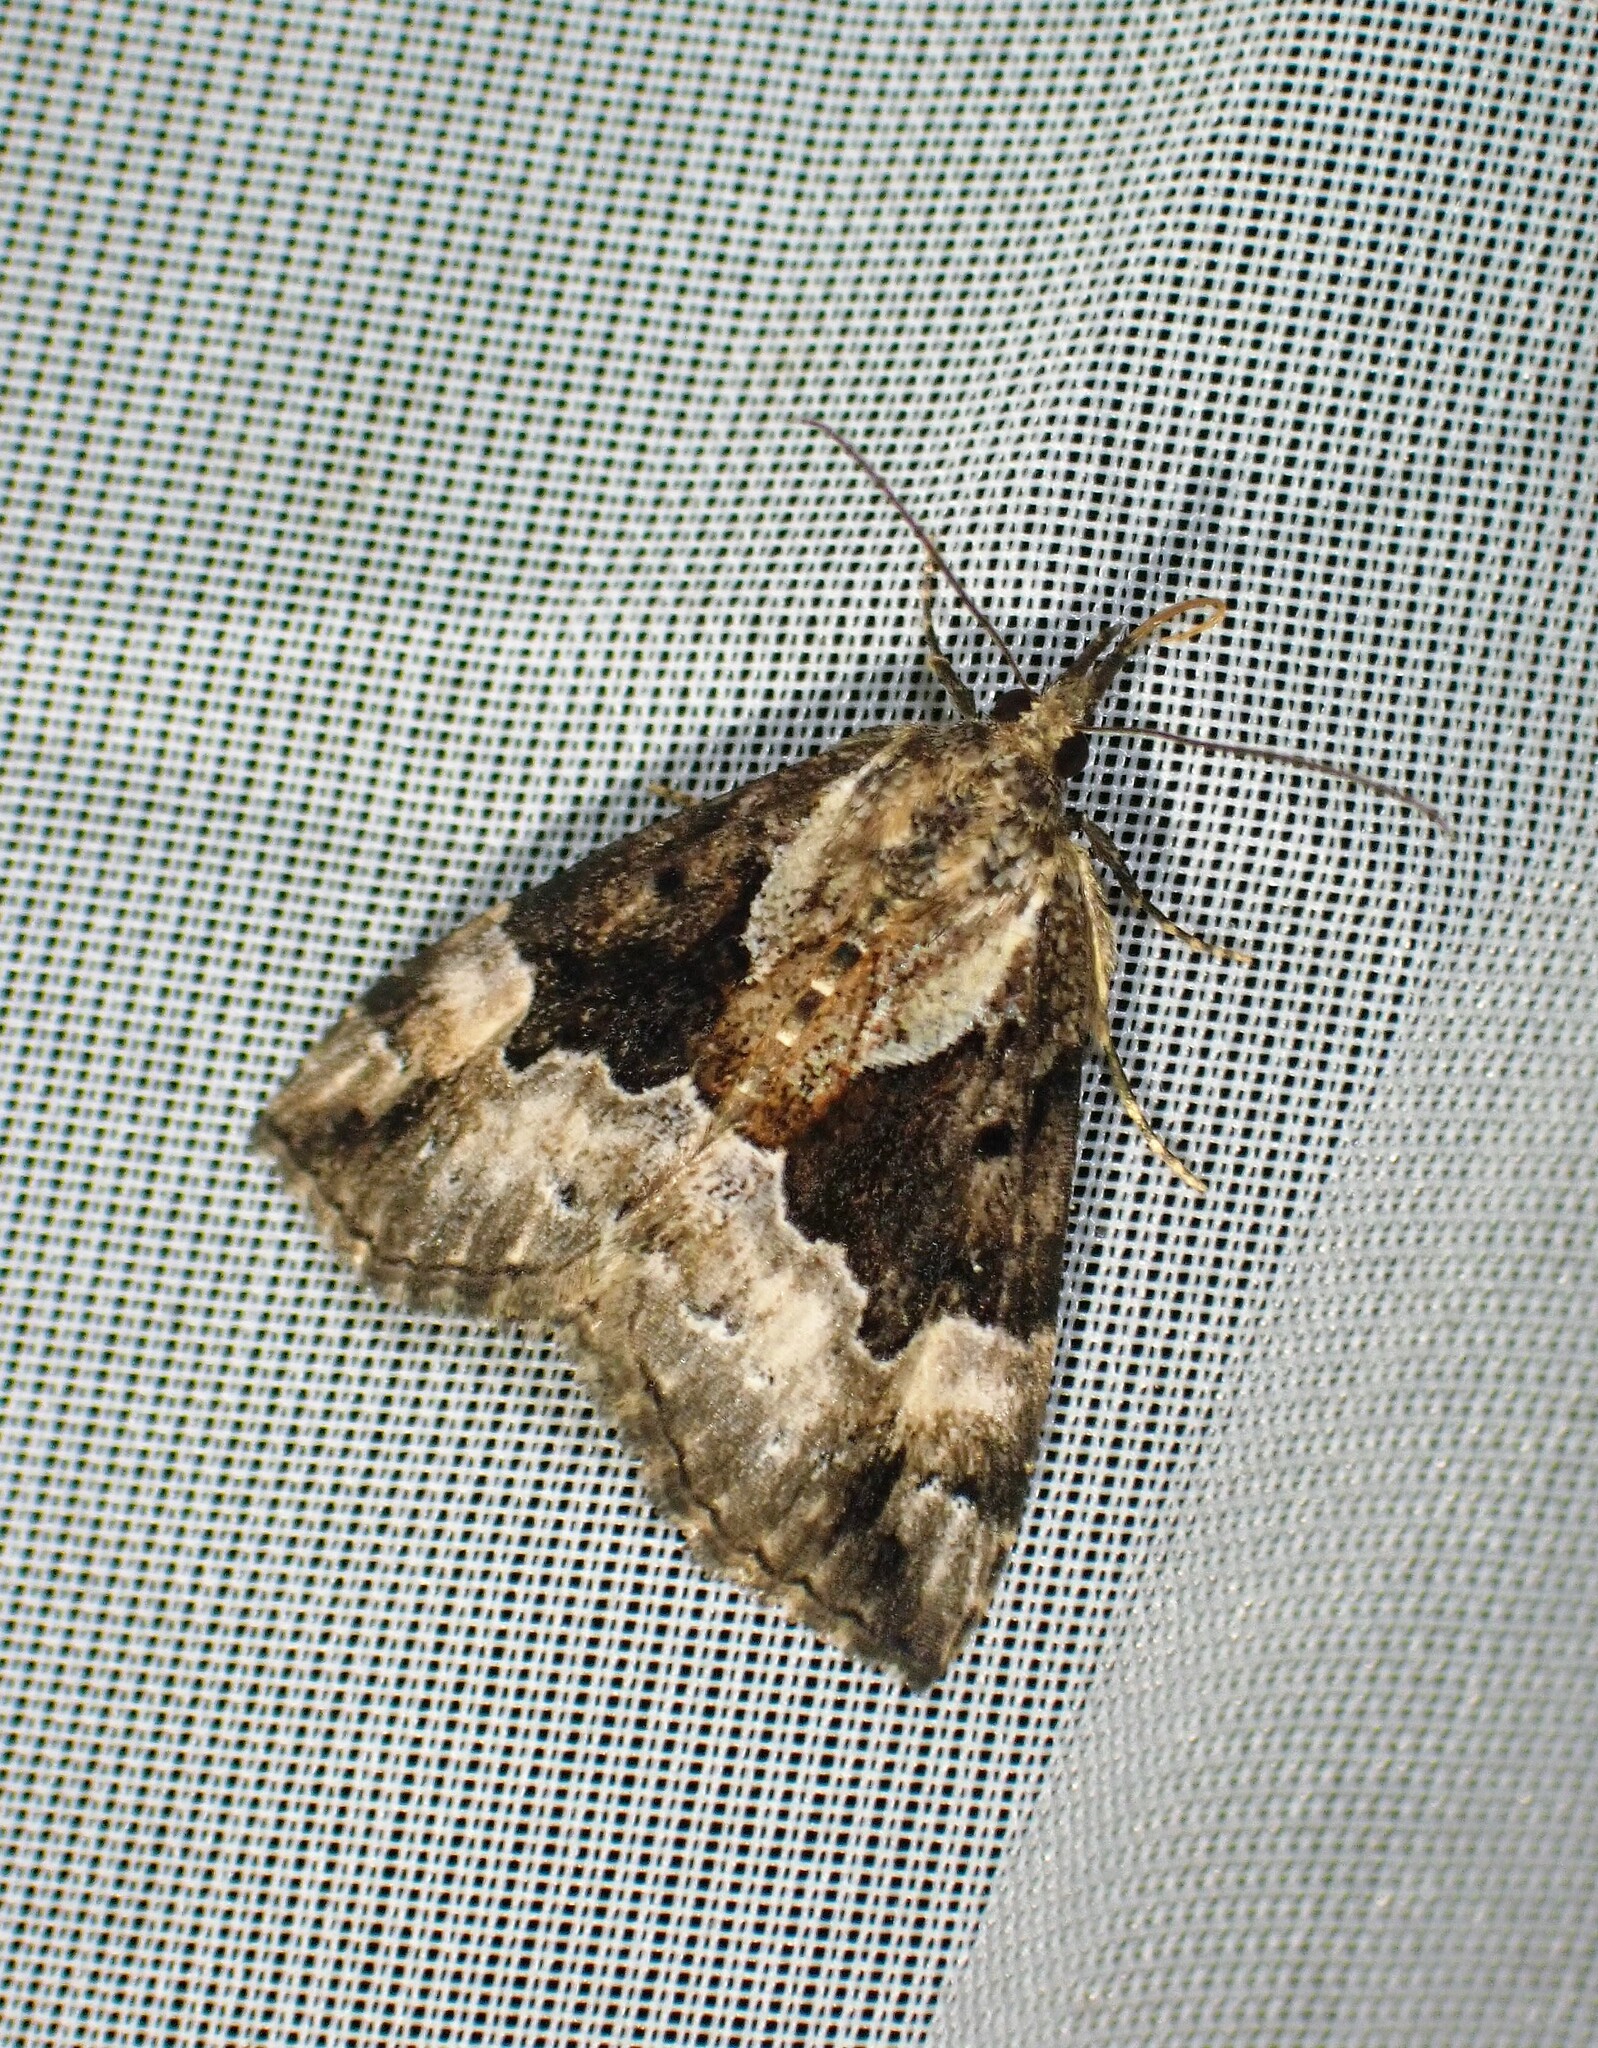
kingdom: Animalia
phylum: Arthropoda
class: Insecta
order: Lepidoptera
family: Erebidae
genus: Hypena
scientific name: Hypena palparia
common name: Mottled bomolocha moth
